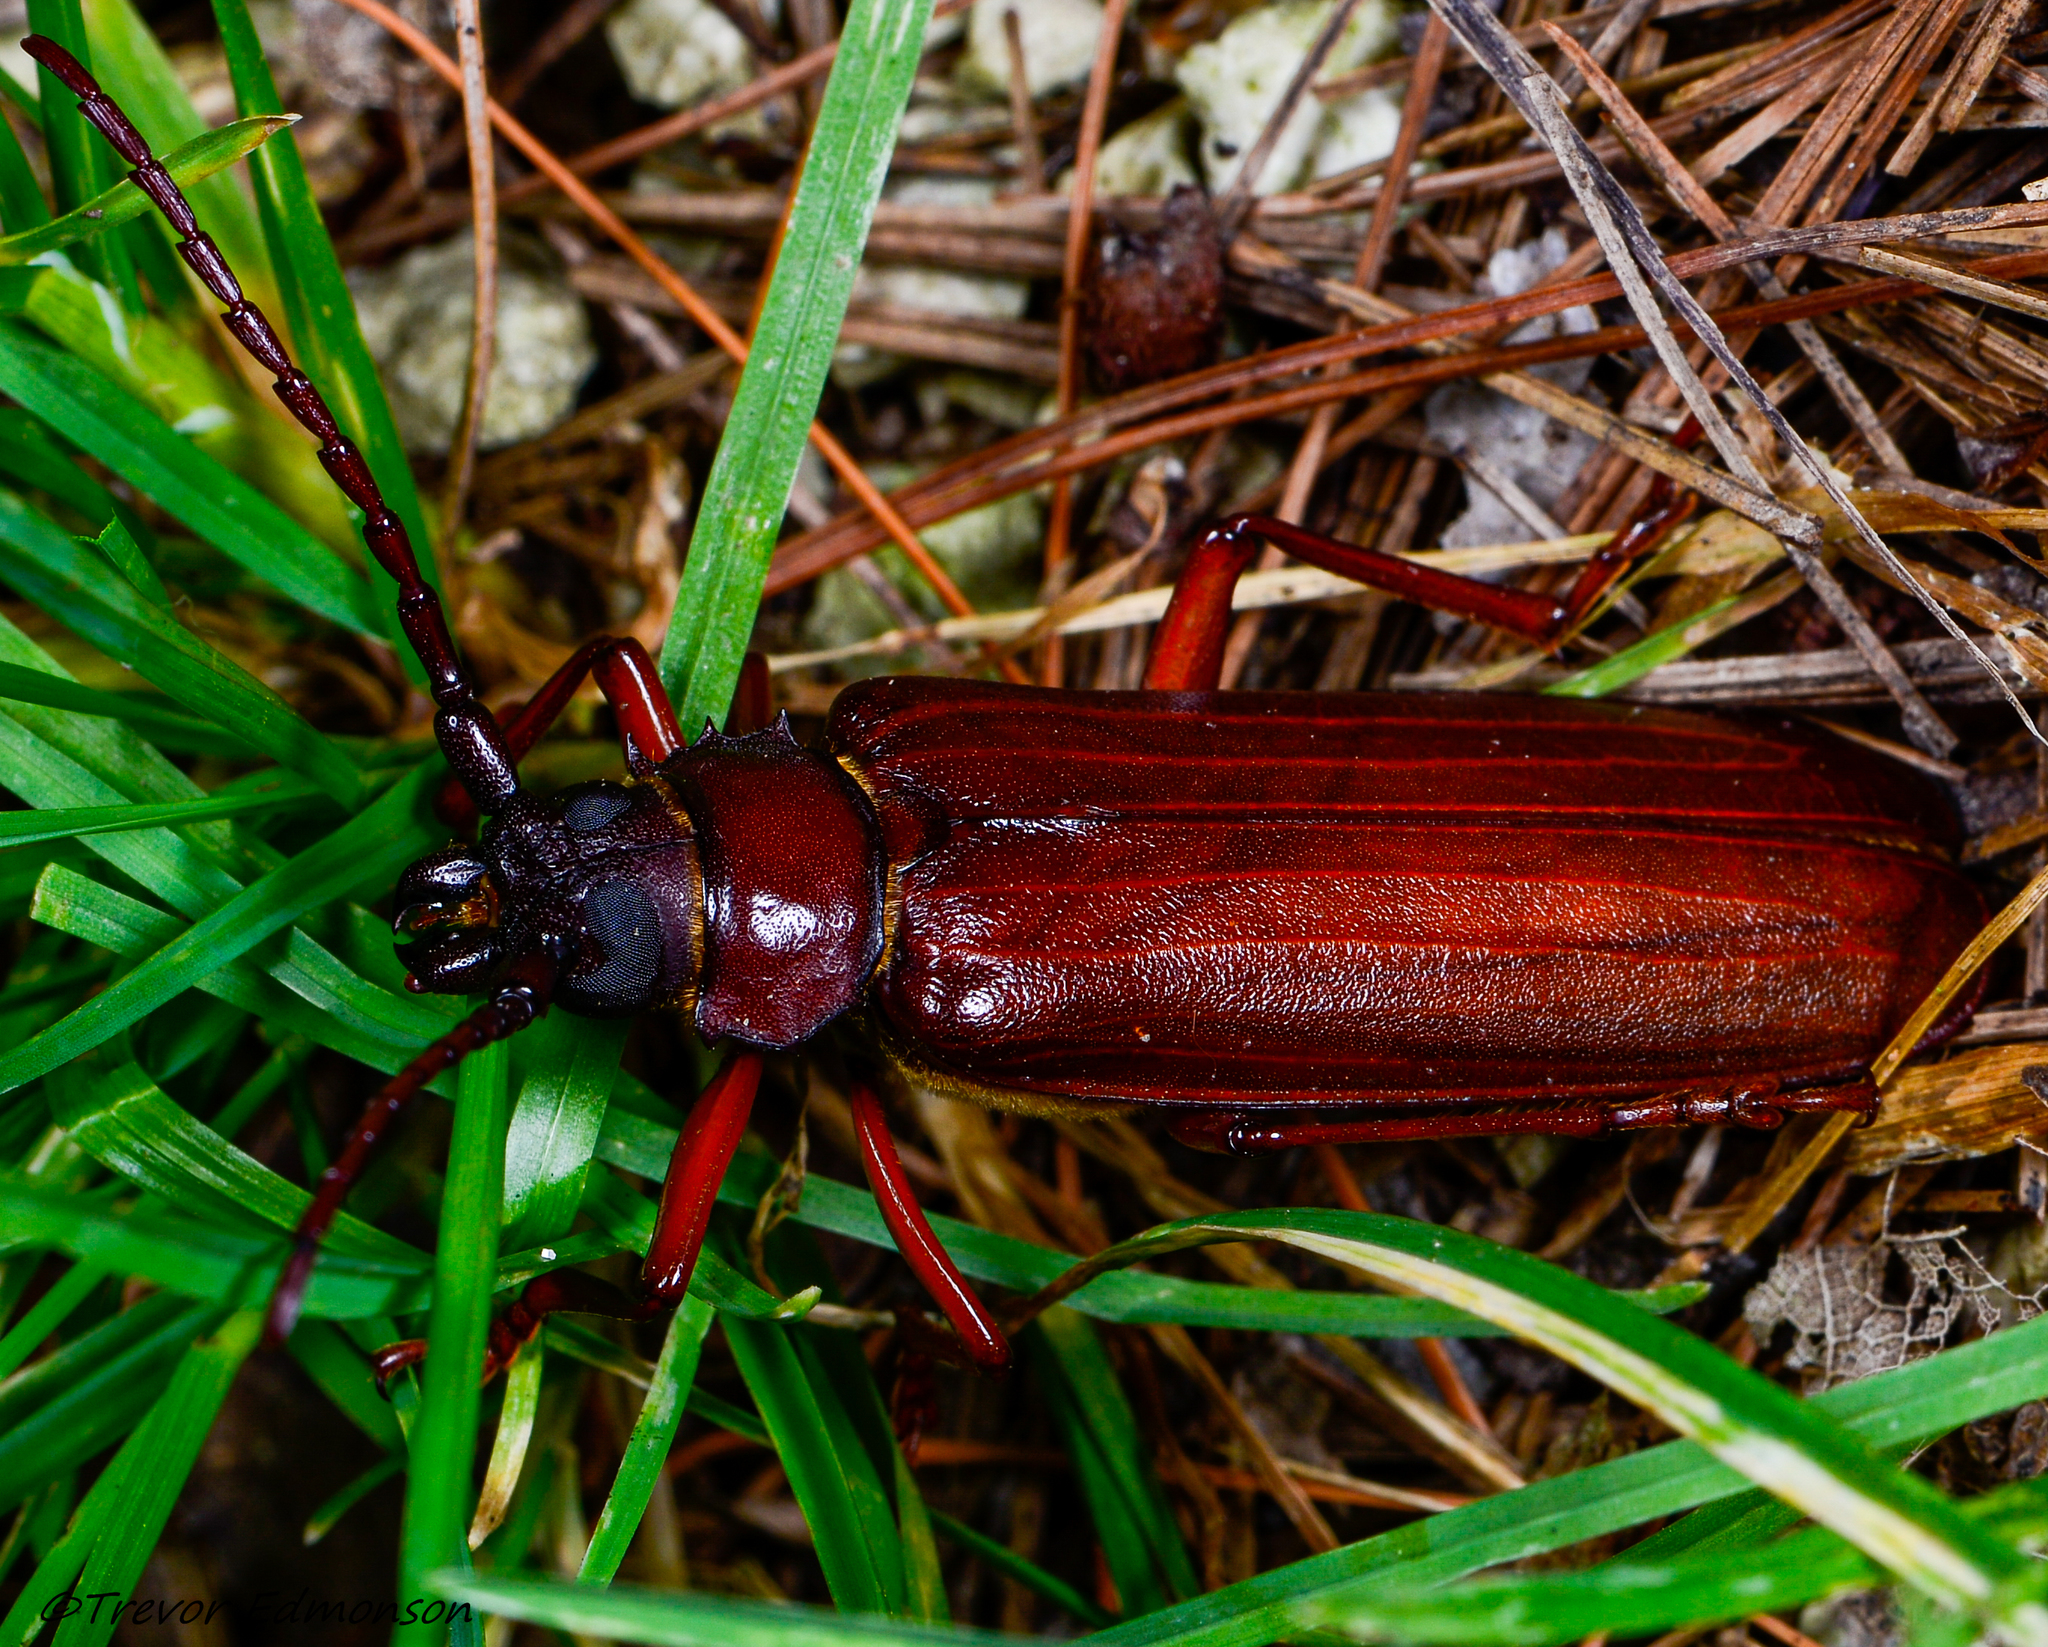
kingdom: Animalia
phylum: Arthropoda
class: Insecta
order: Coleoptera
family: Cerambycidae
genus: Orthosoma
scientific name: Orthosoma brunneum
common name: Brown prionid beetle
